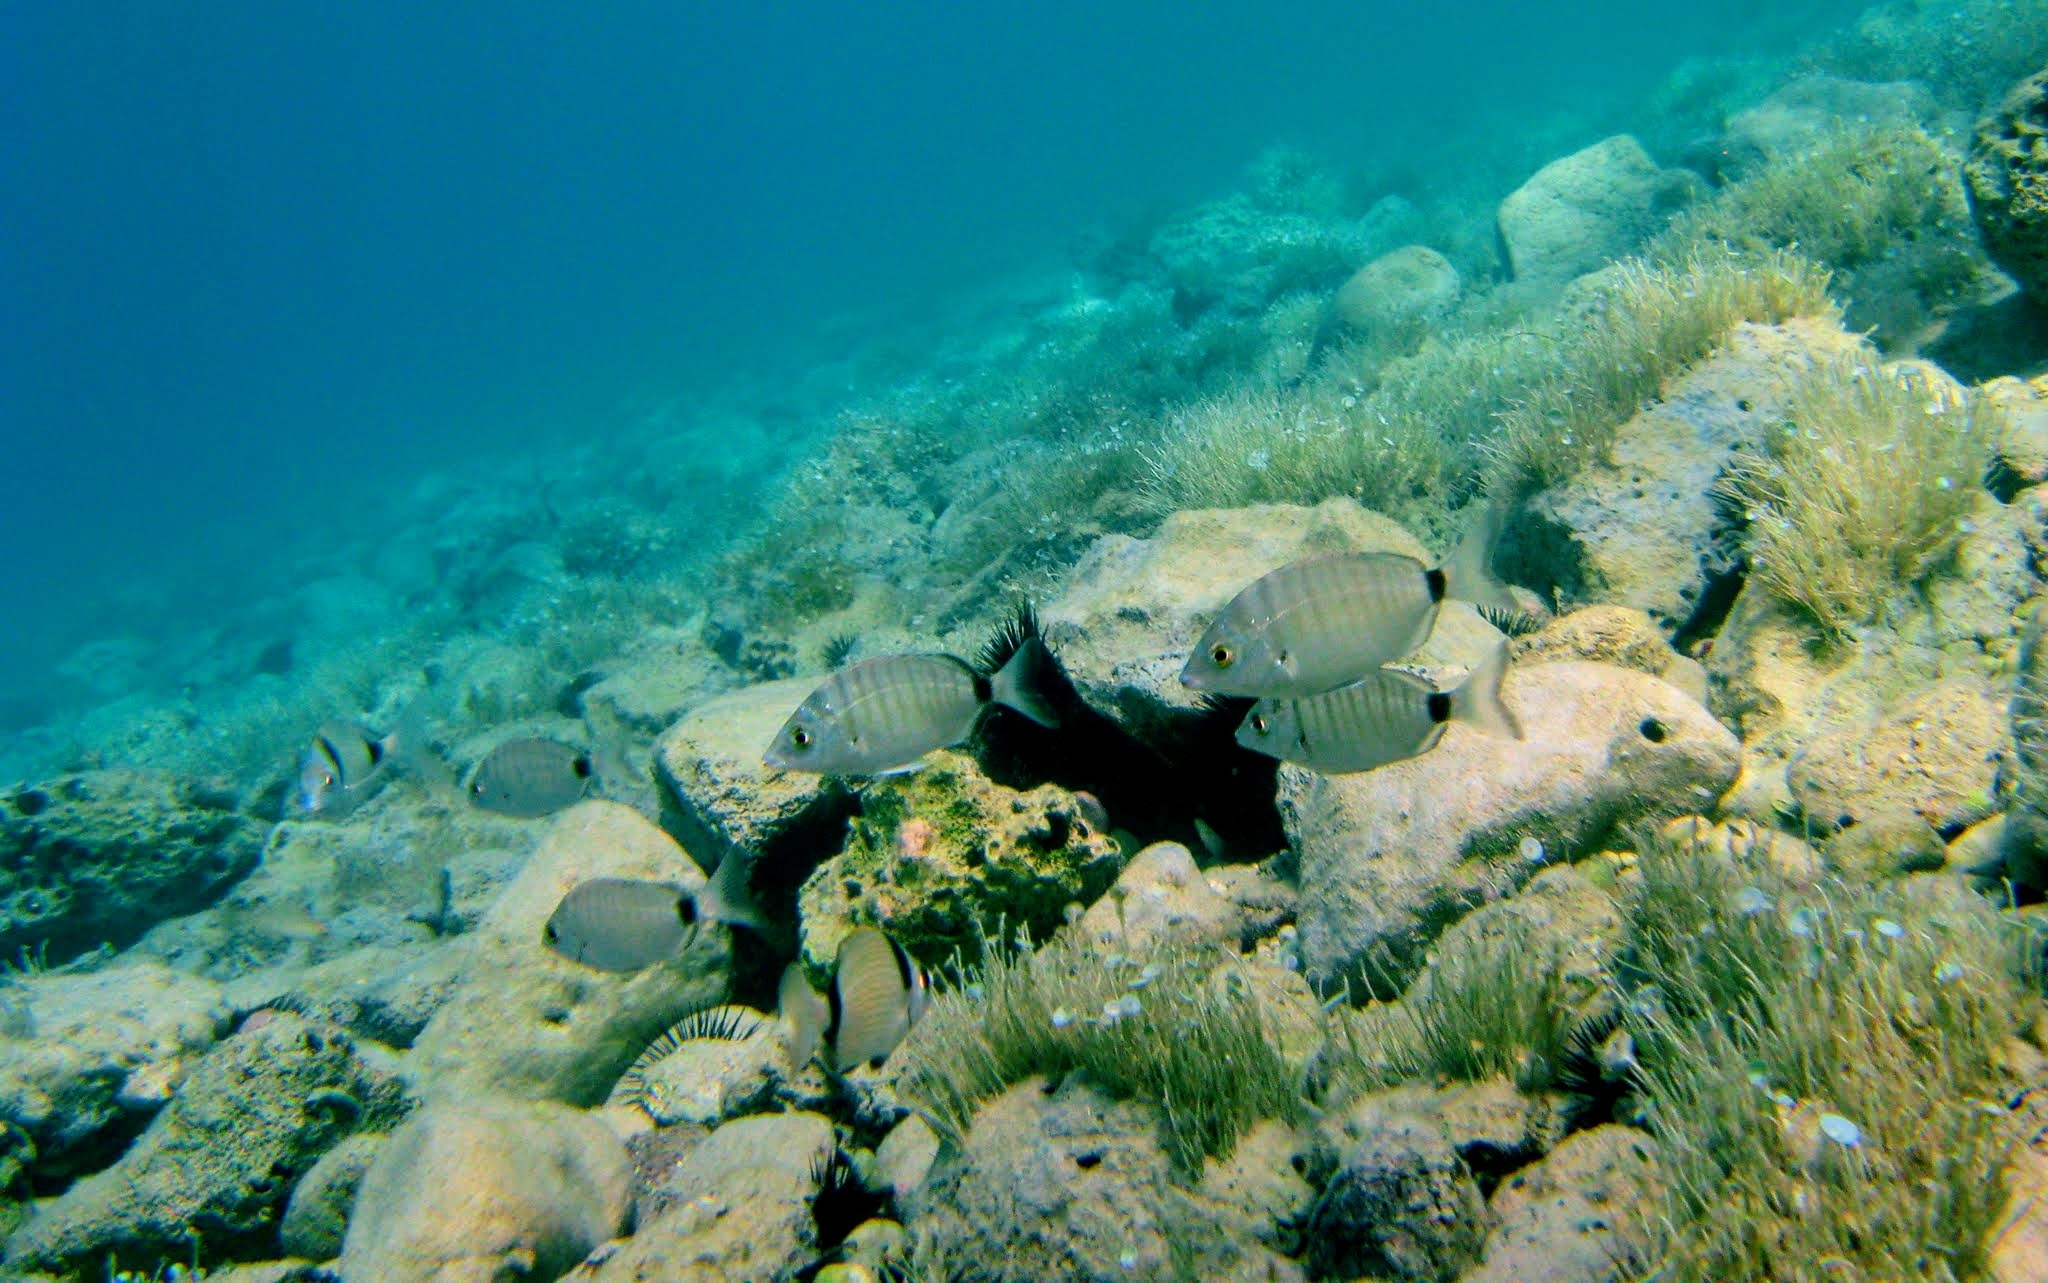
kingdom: Animalia
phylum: Chordata
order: Perciformes
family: Sparidae
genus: Diplodus
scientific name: Diplodus puntazzo
